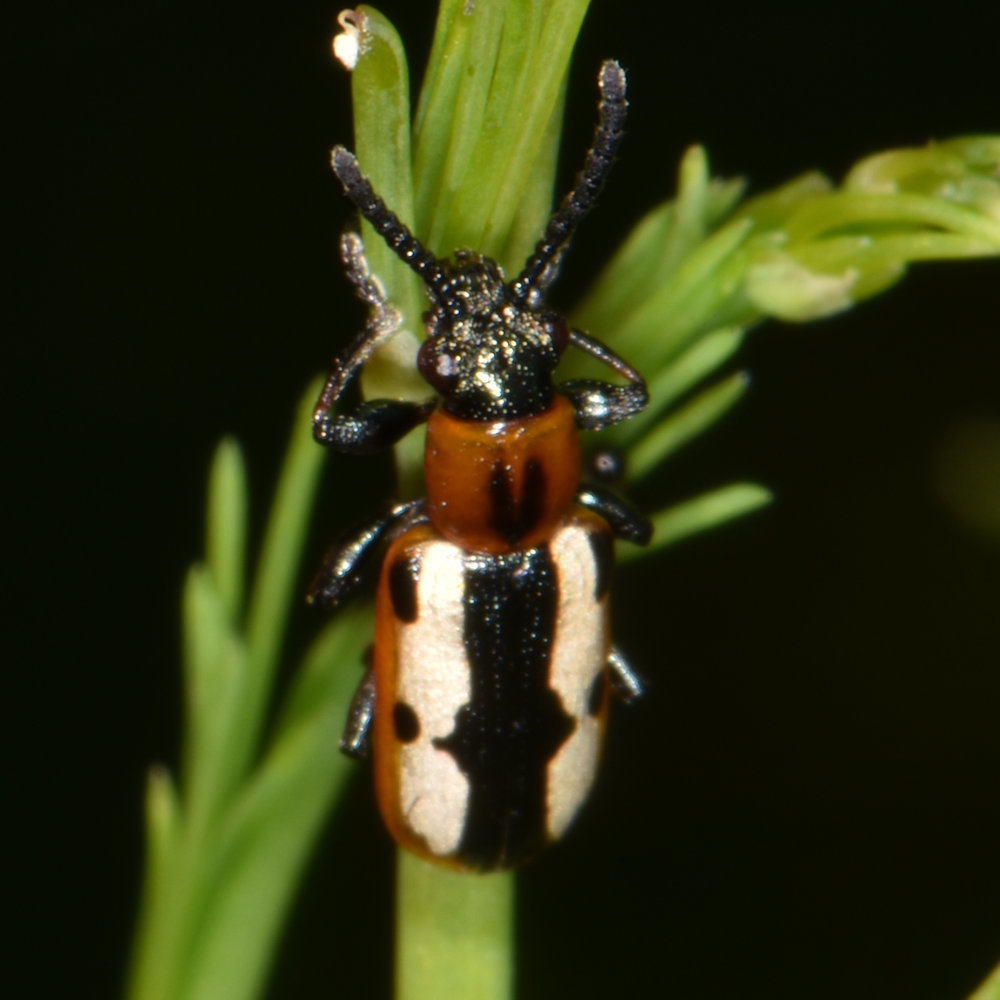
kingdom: Animalia
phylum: Arthropoda
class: Insecta
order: Coleoptera
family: Chrysomelidae
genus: Crioceris
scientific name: Crioceris asparagi
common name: Asparagus beetle
